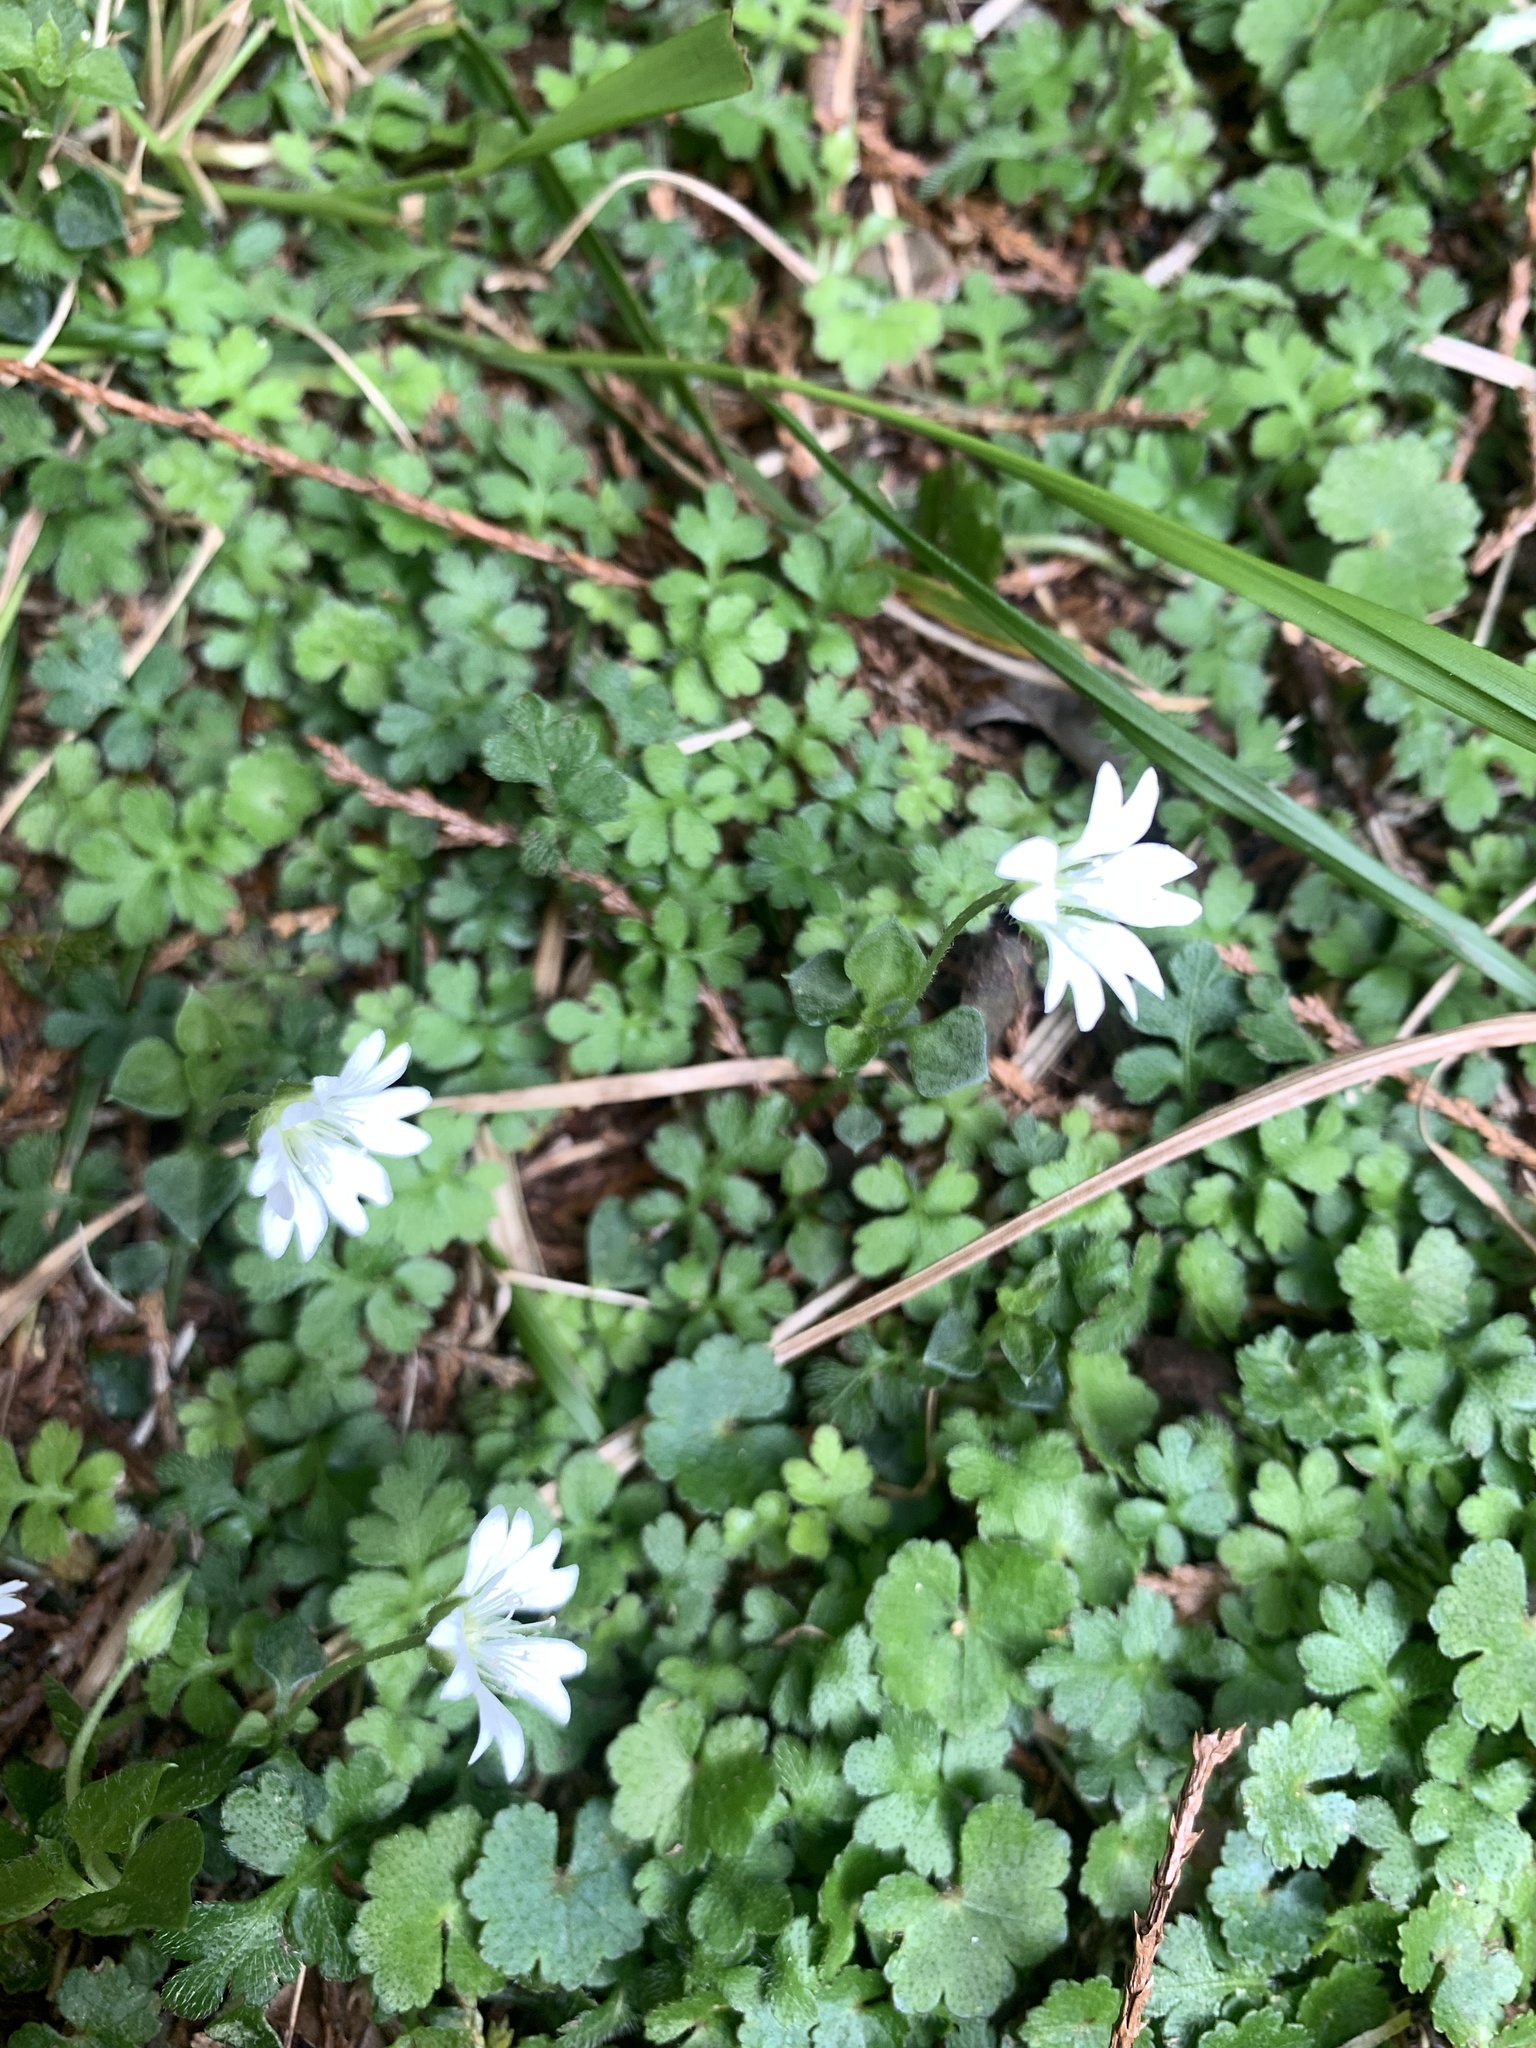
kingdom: Plantae
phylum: Tracheophyta
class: Magnoliopsida
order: Caryophyllales
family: Caryophyllaceae
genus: Nubelaria
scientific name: Nubelaria arisanensis
